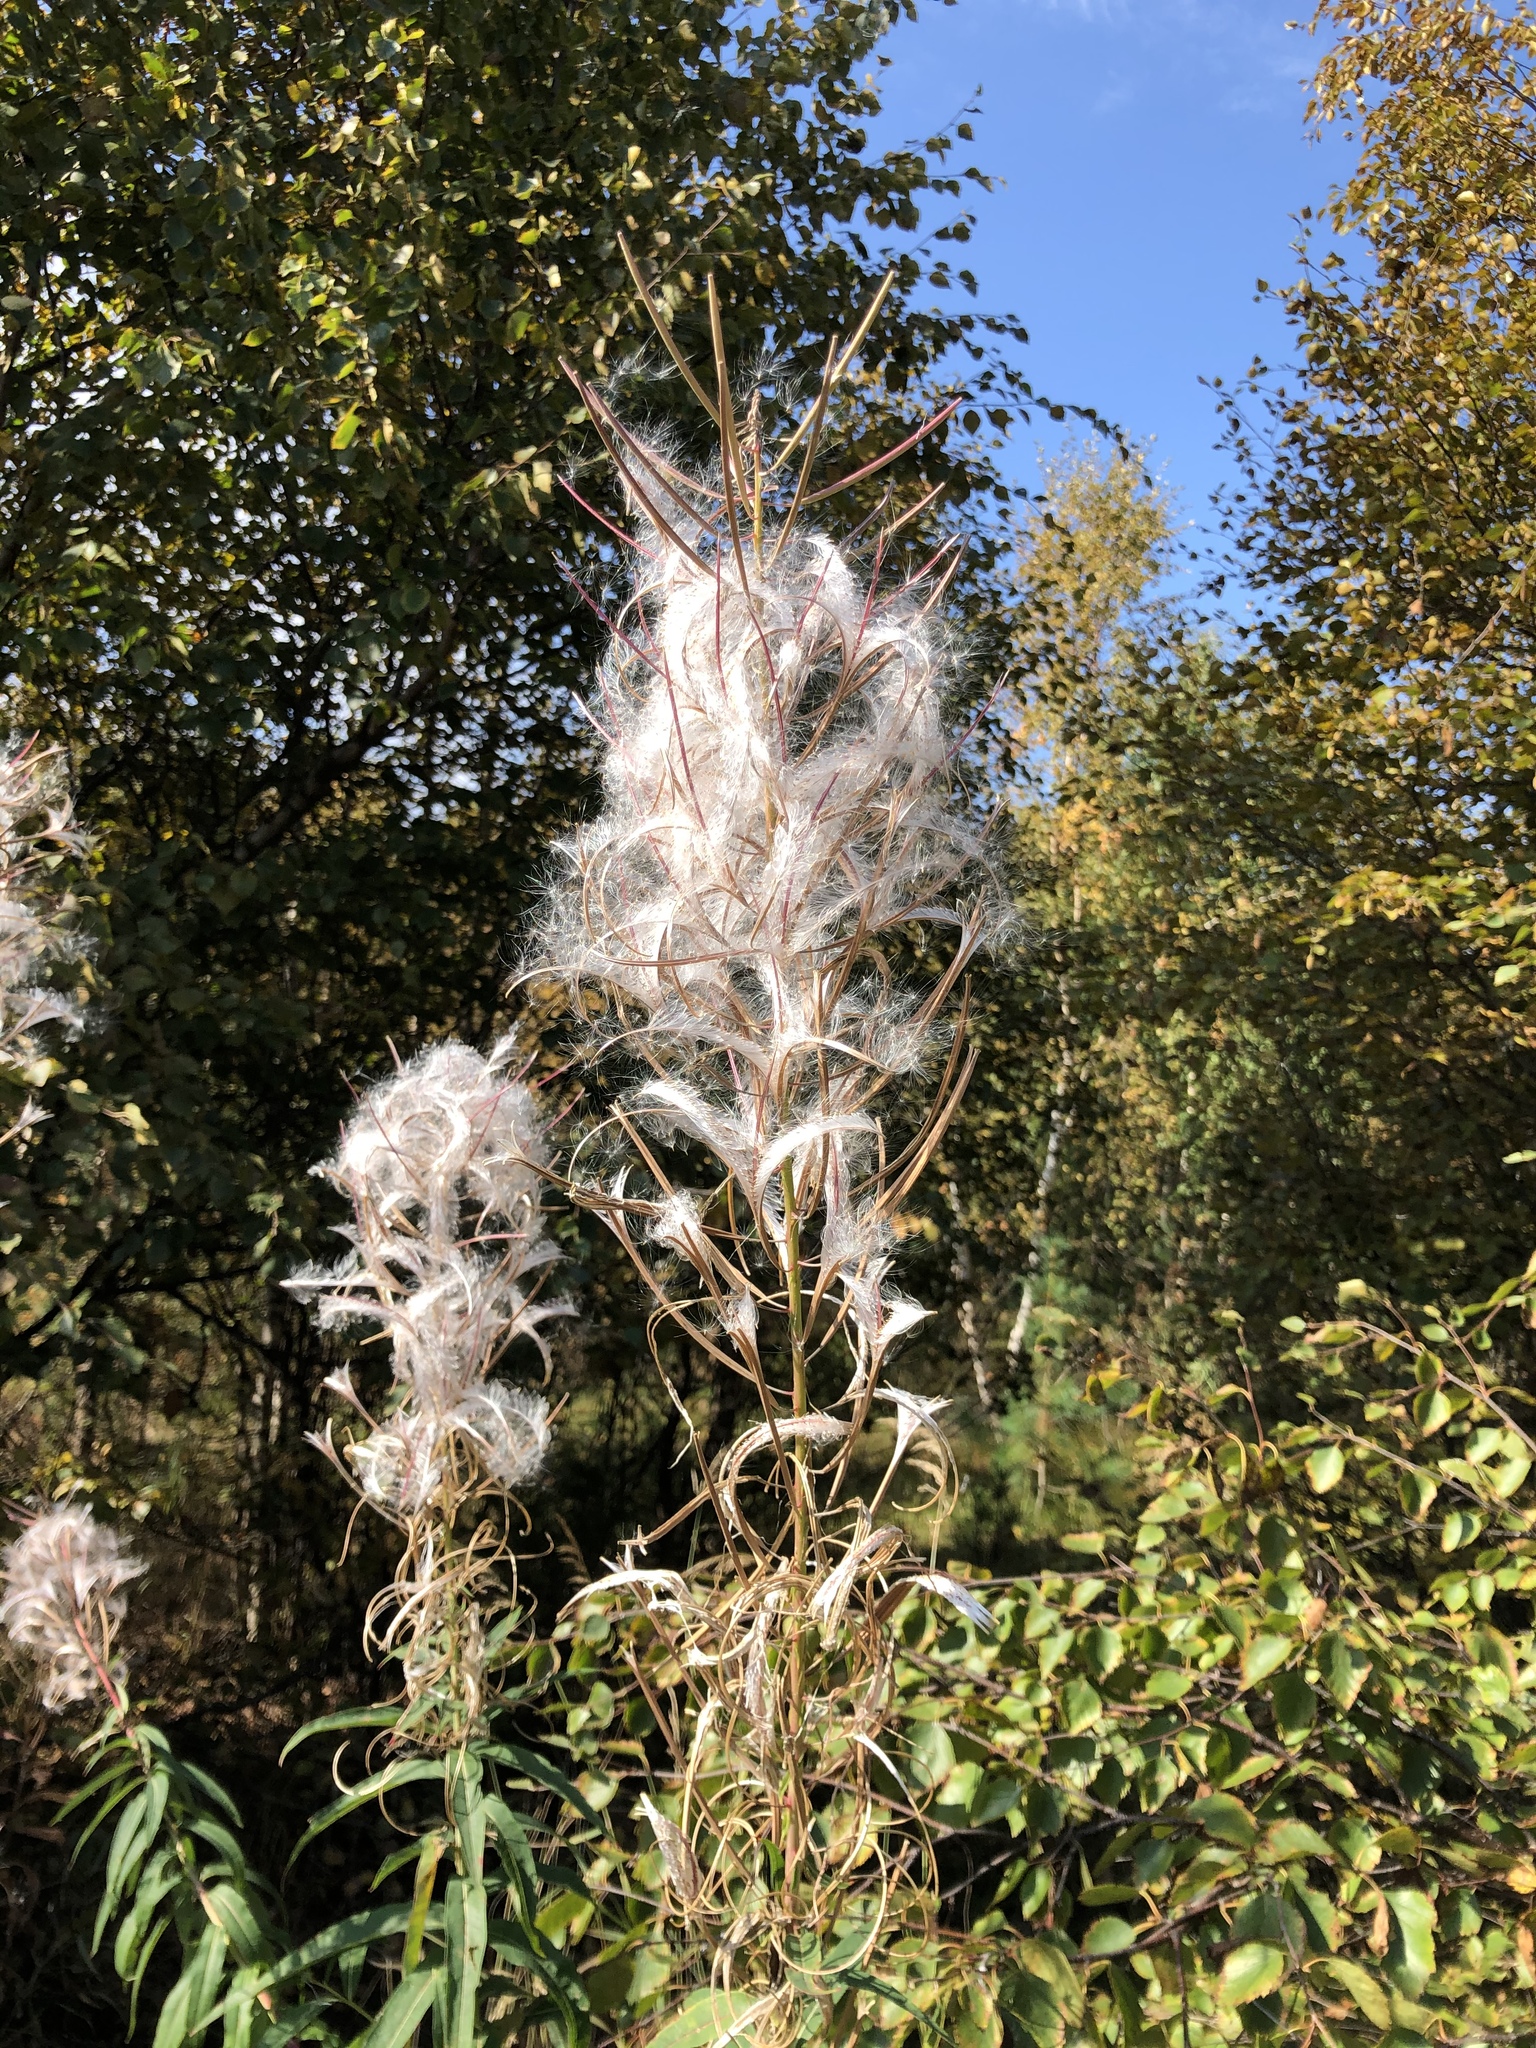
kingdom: Plantae
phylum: Tracheophyta
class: Magnoliopsida
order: Myrtales
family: Onagraceae
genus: Chamaenerion
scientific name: Chamaenerion angustifolium
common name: Fireweed
